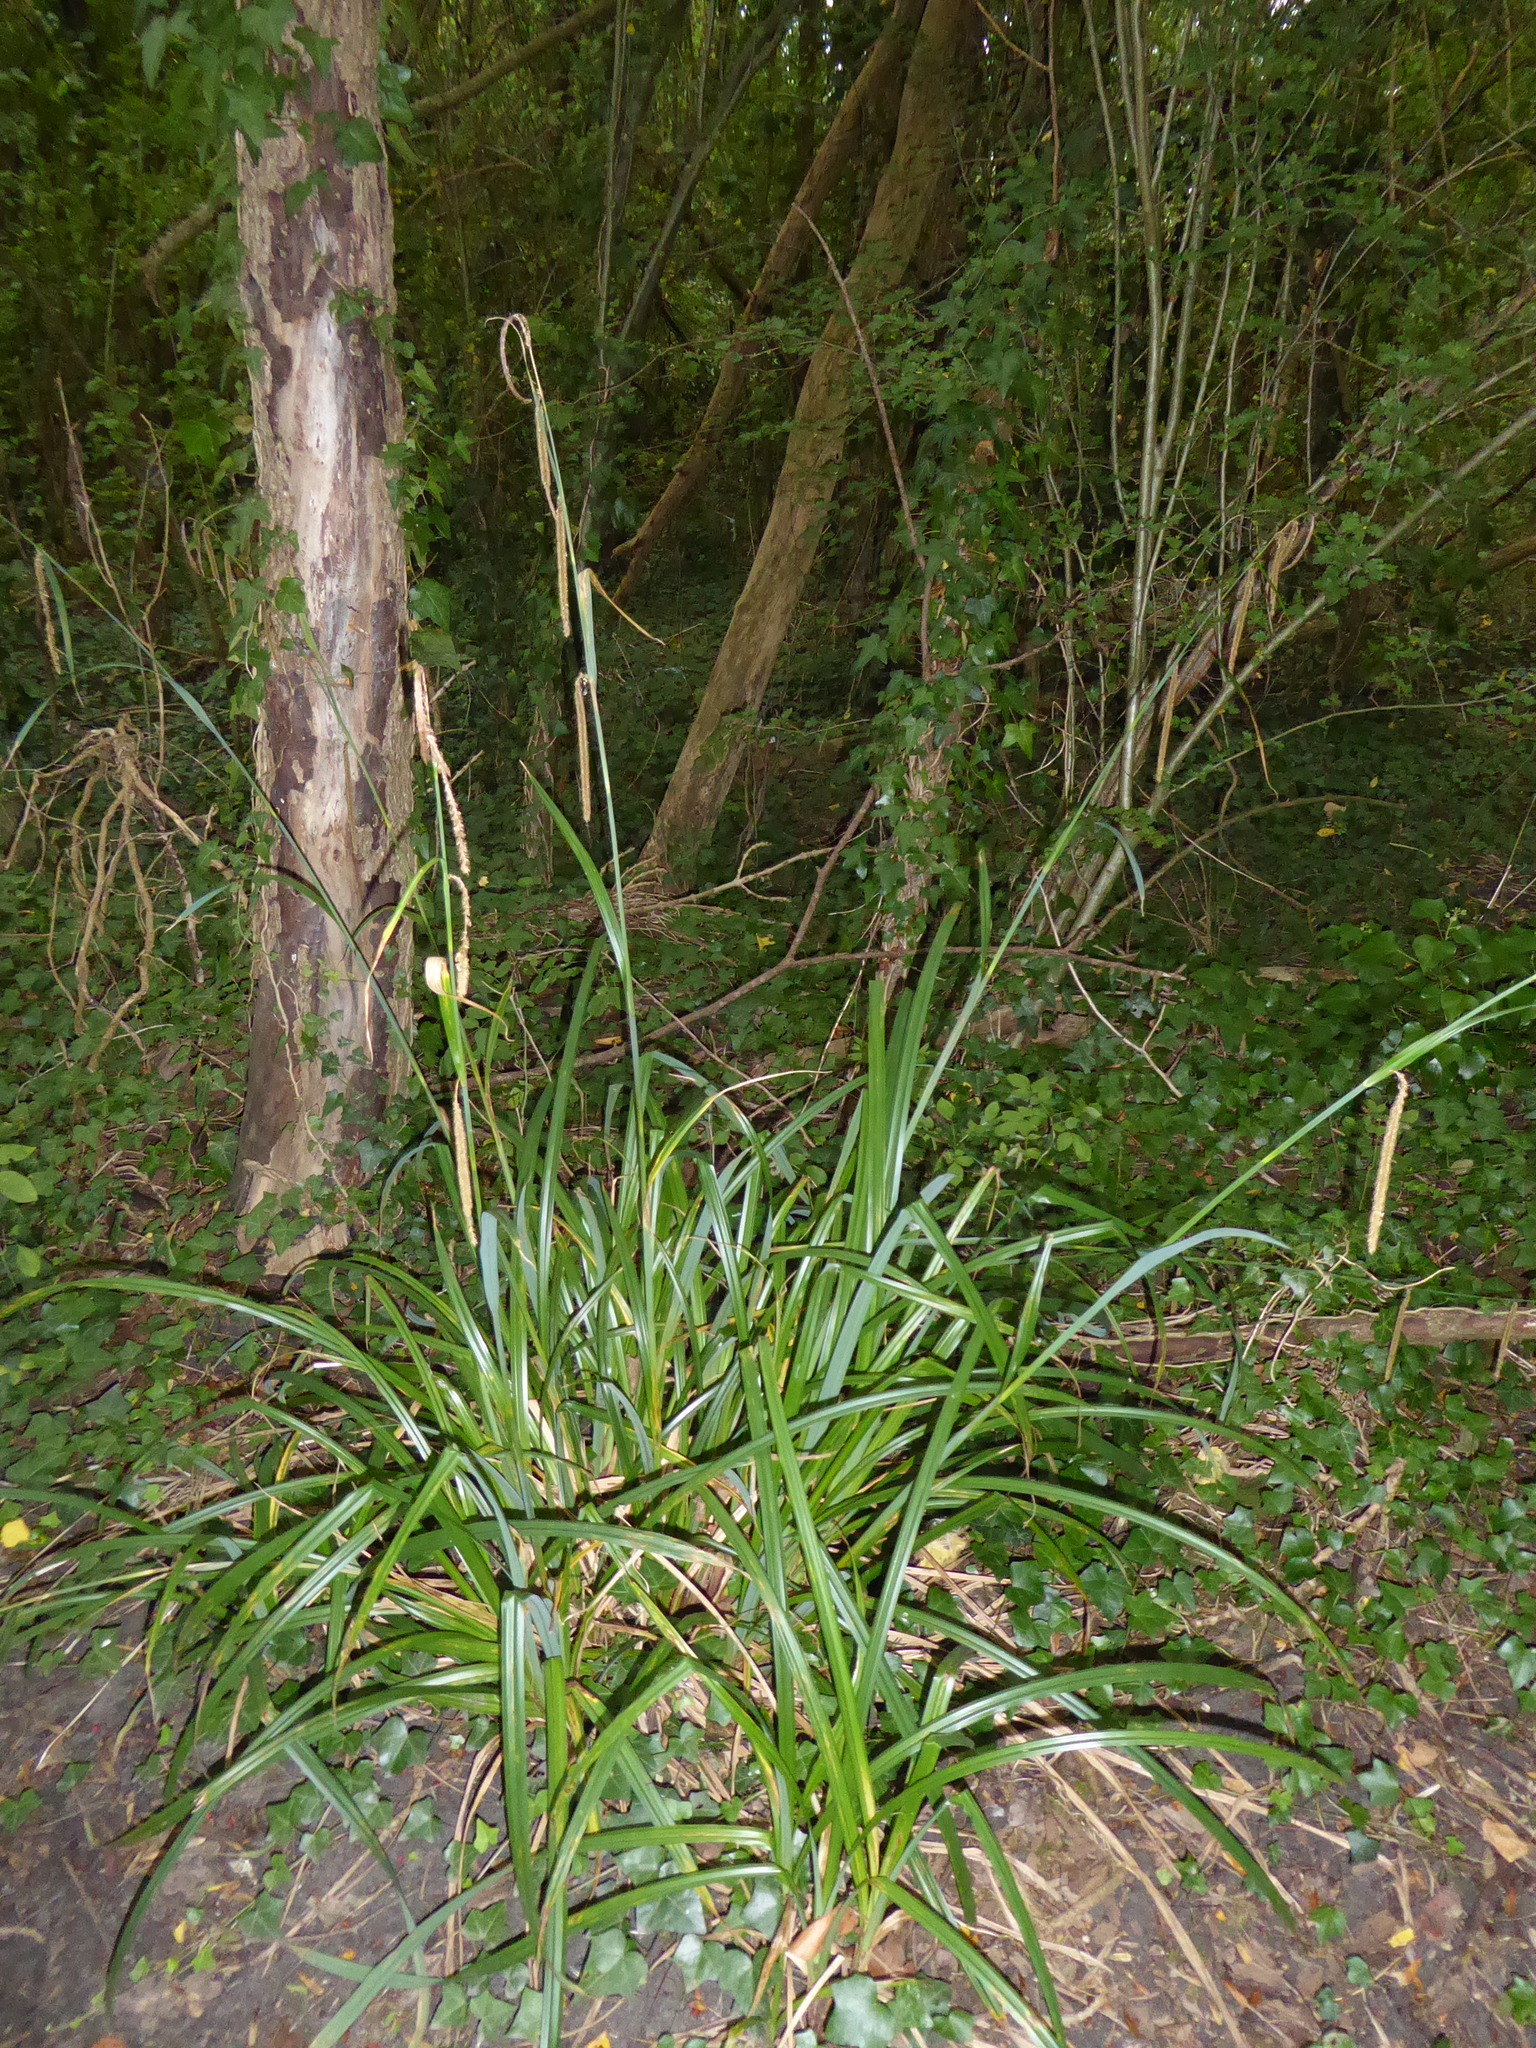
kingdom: Plantae
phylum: Tracheophyta
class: Liliopsida
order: Poales
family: Cyperaceae
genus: Carex
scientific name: Carex pendula
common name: Pendulous sedge
